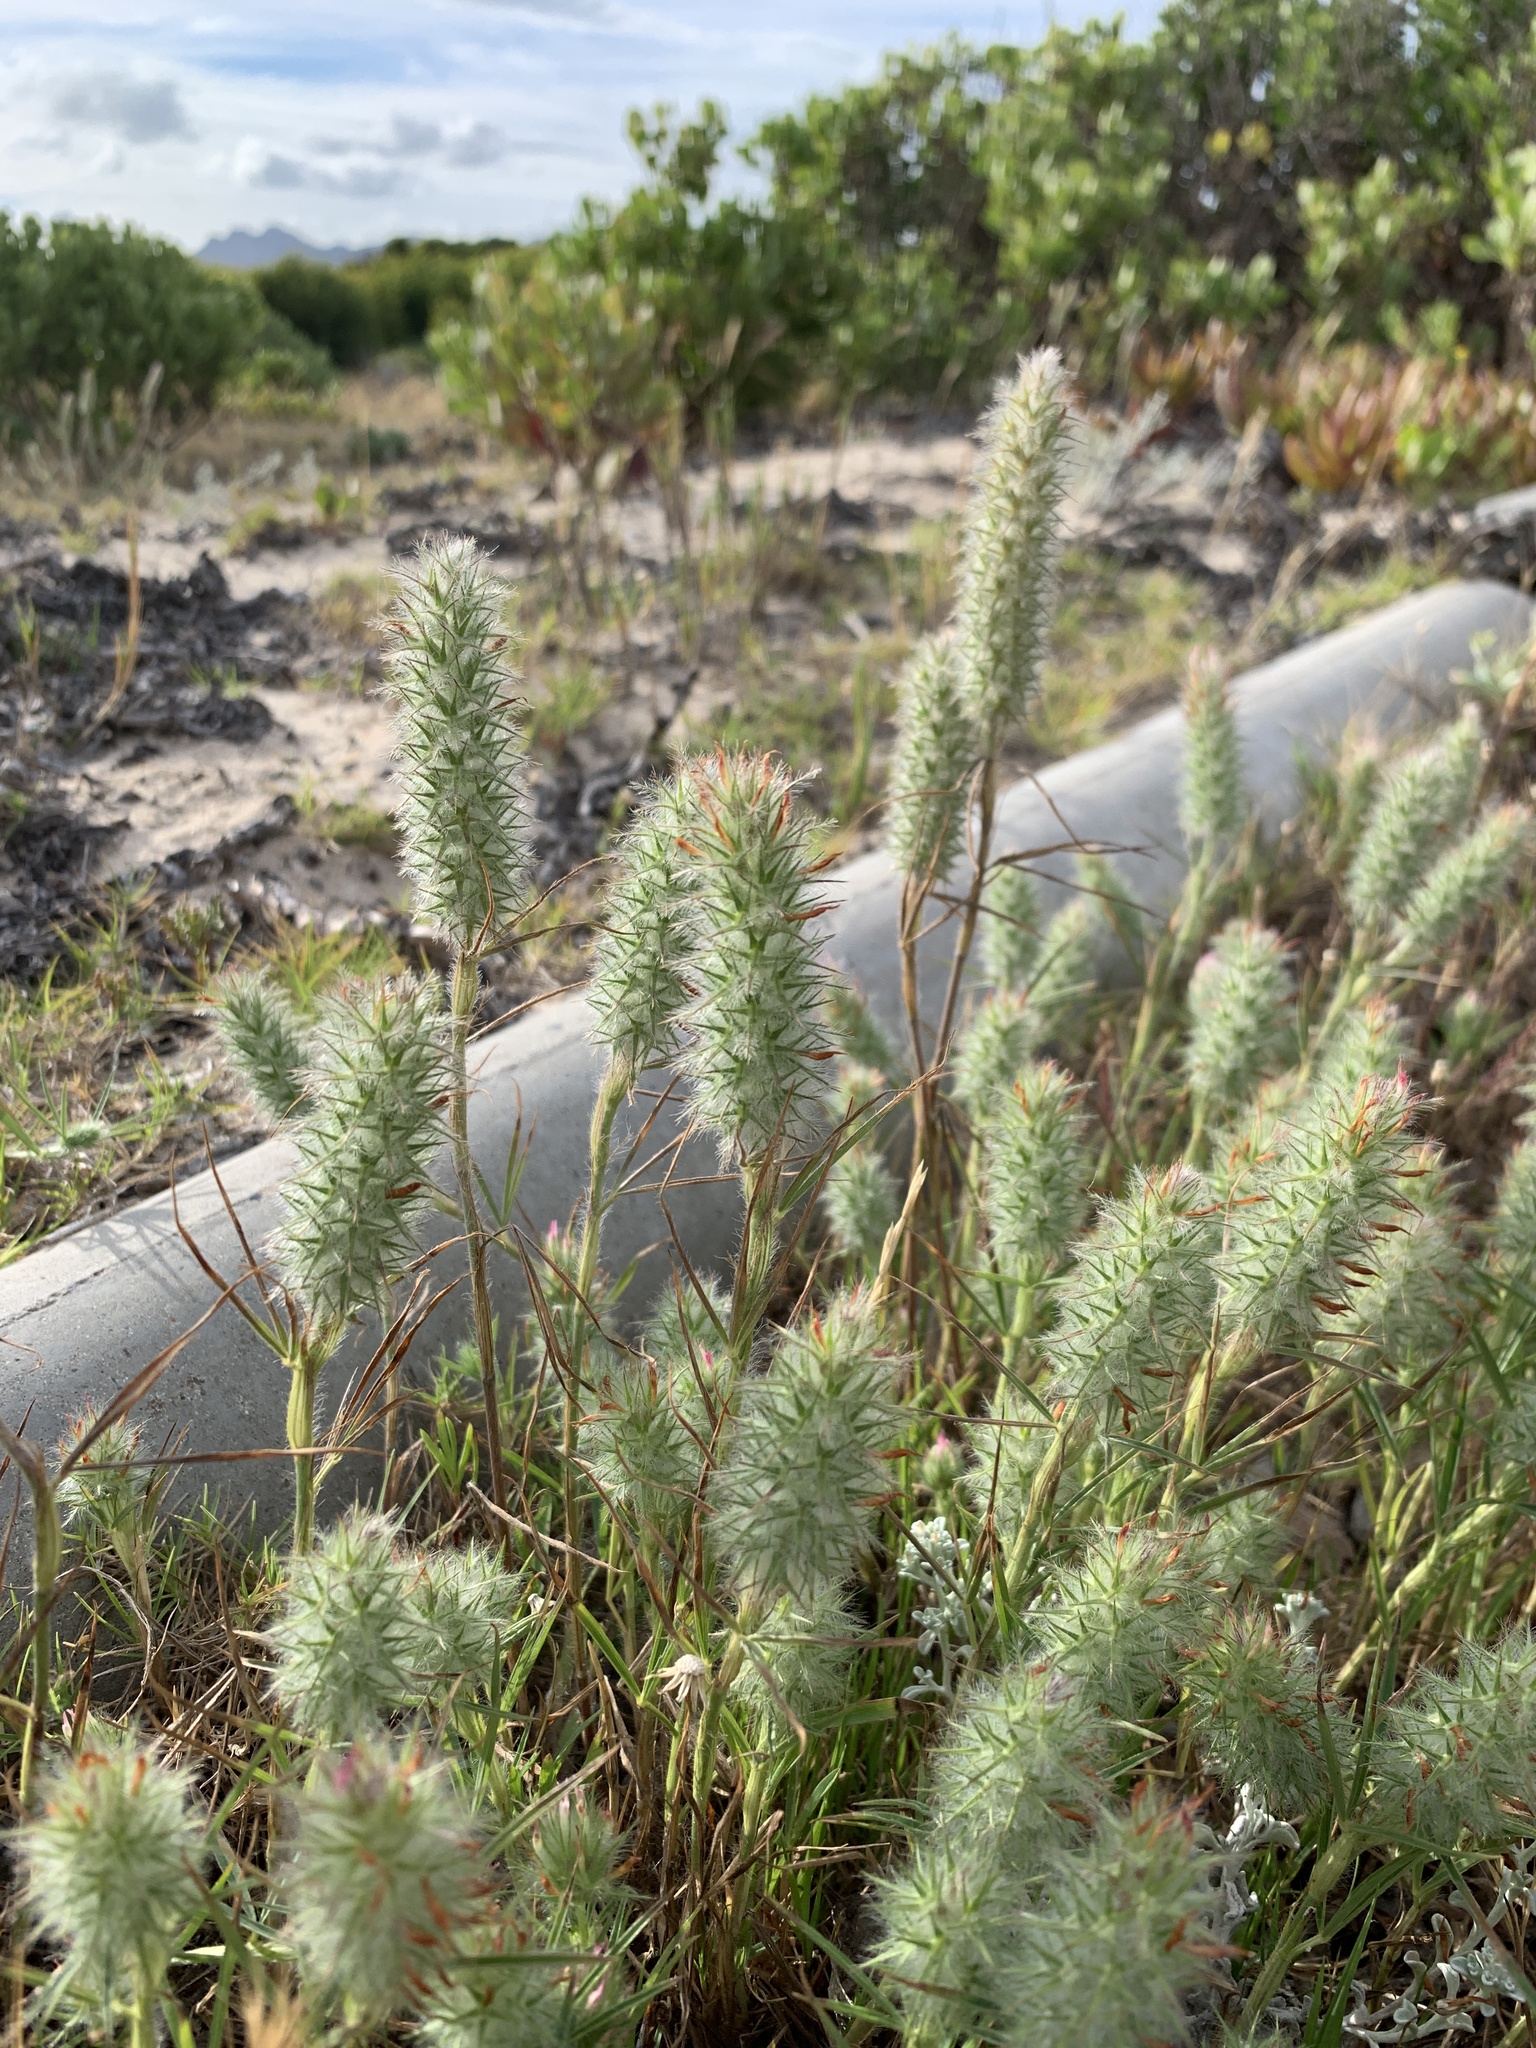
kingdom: Plantae
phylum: Tracheophyta
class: Magnoliopsida
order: Fabales
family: Fabaceae
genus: Trifolium
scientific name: Trifolium angustifolium
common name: Narrow clover
